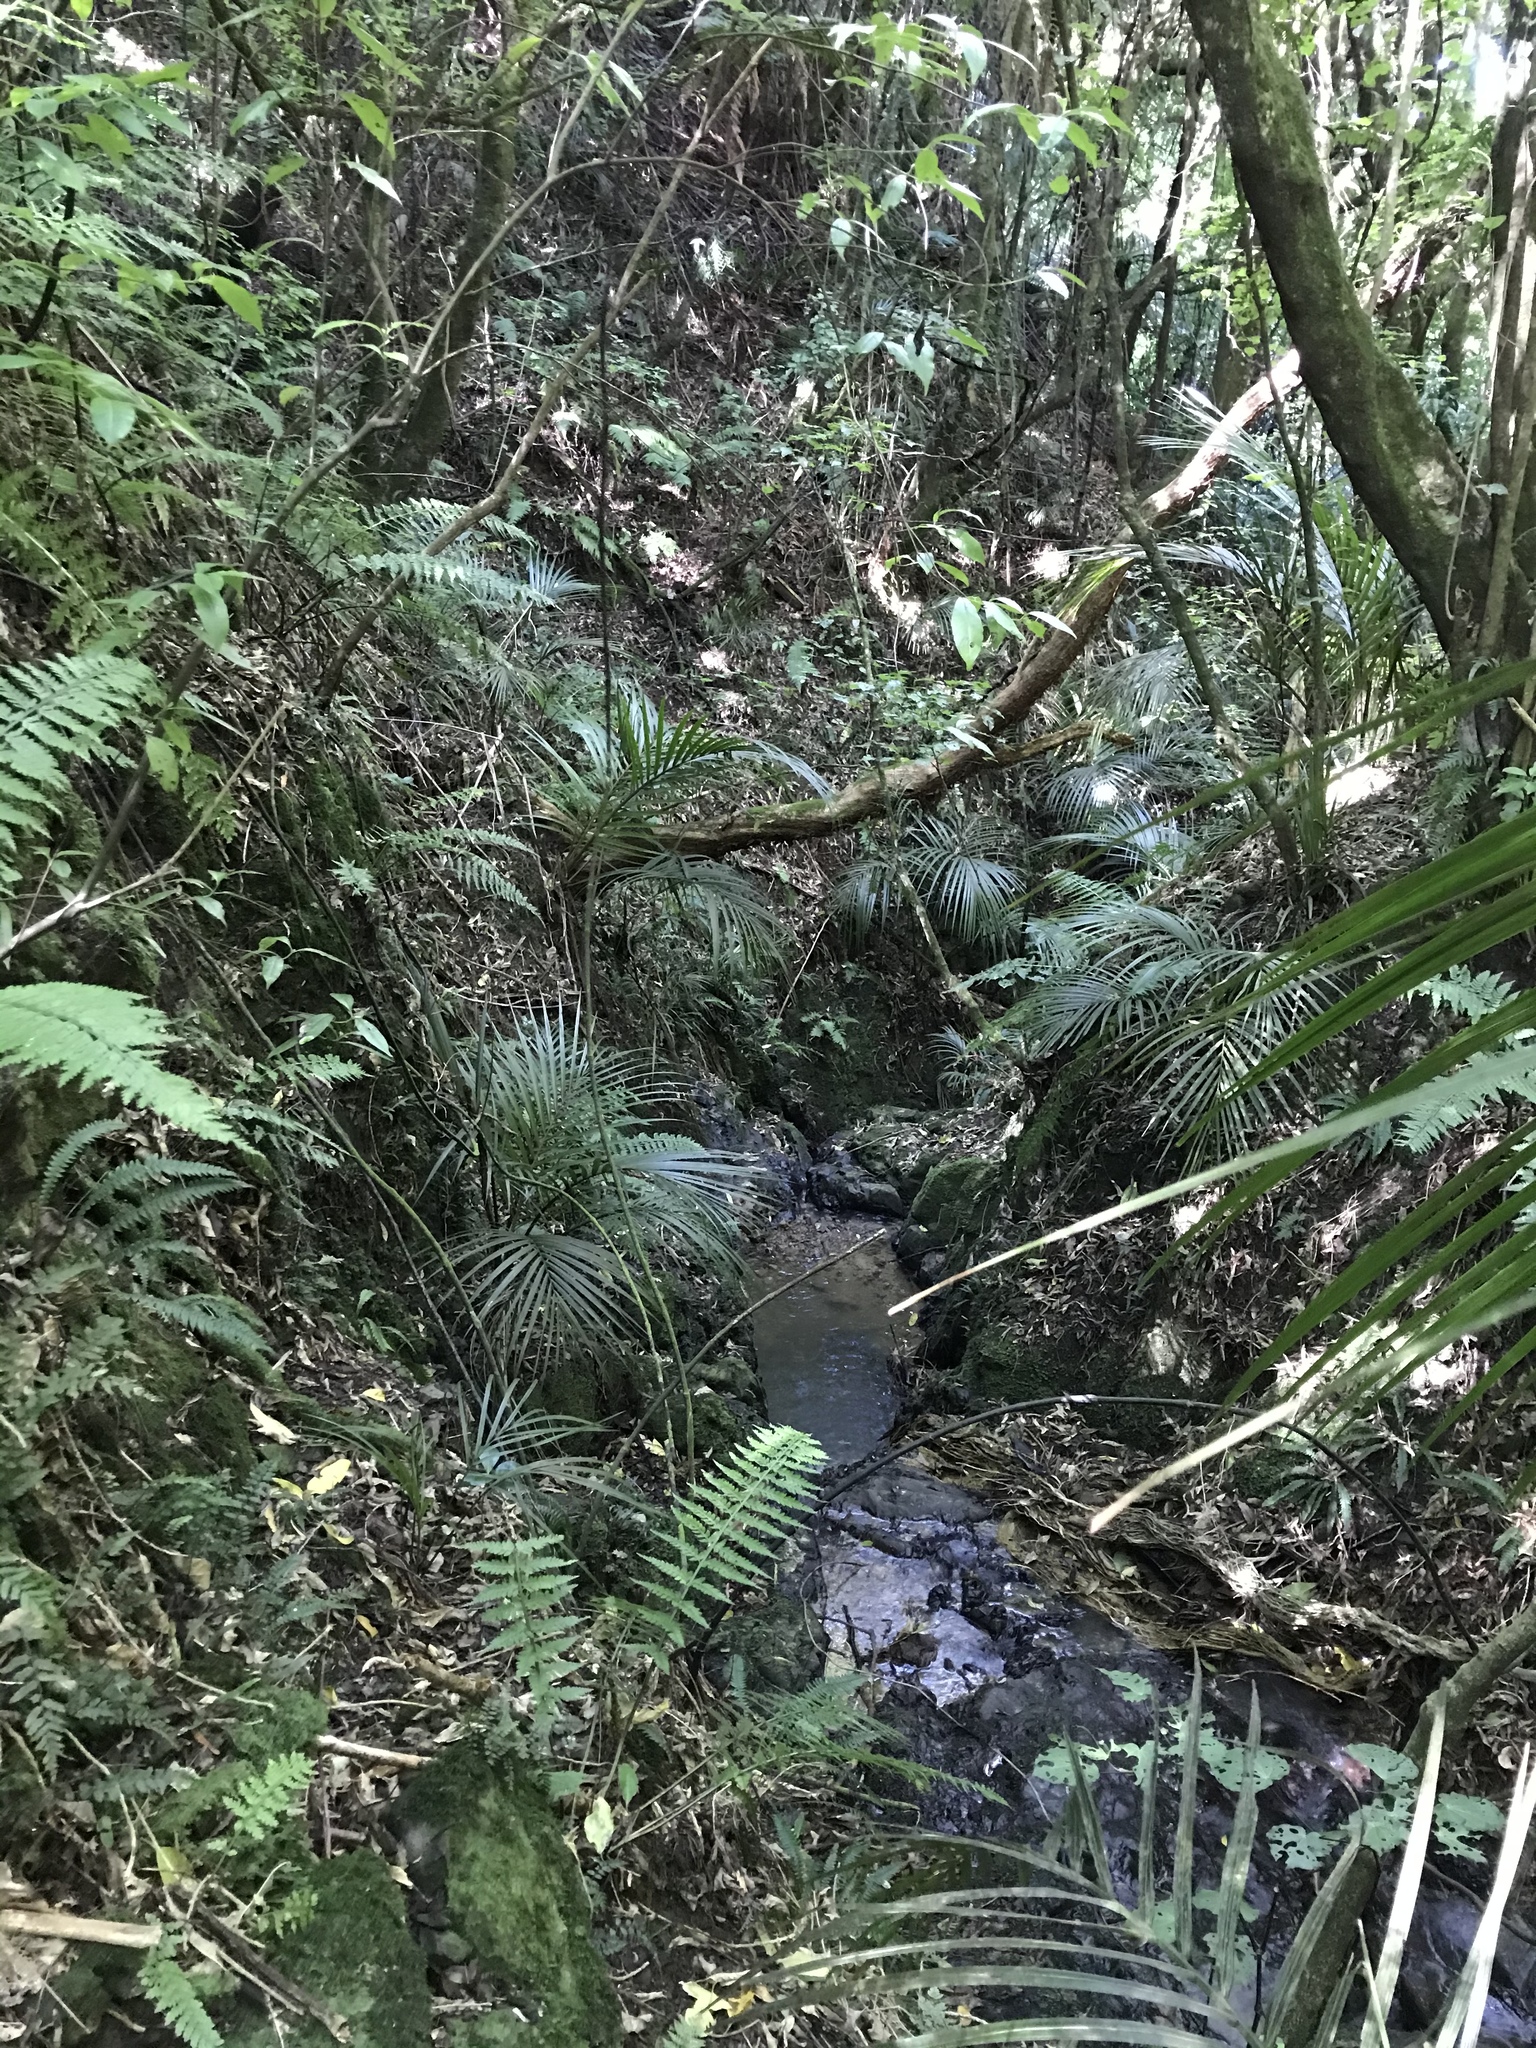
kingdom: Plantae
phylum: Tracheophyta
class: Liliopsida
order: Arecales
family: Arecaceae
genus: Rhopalostylis
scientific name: Rhopalostylis sapida
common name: Feather-duster palm
